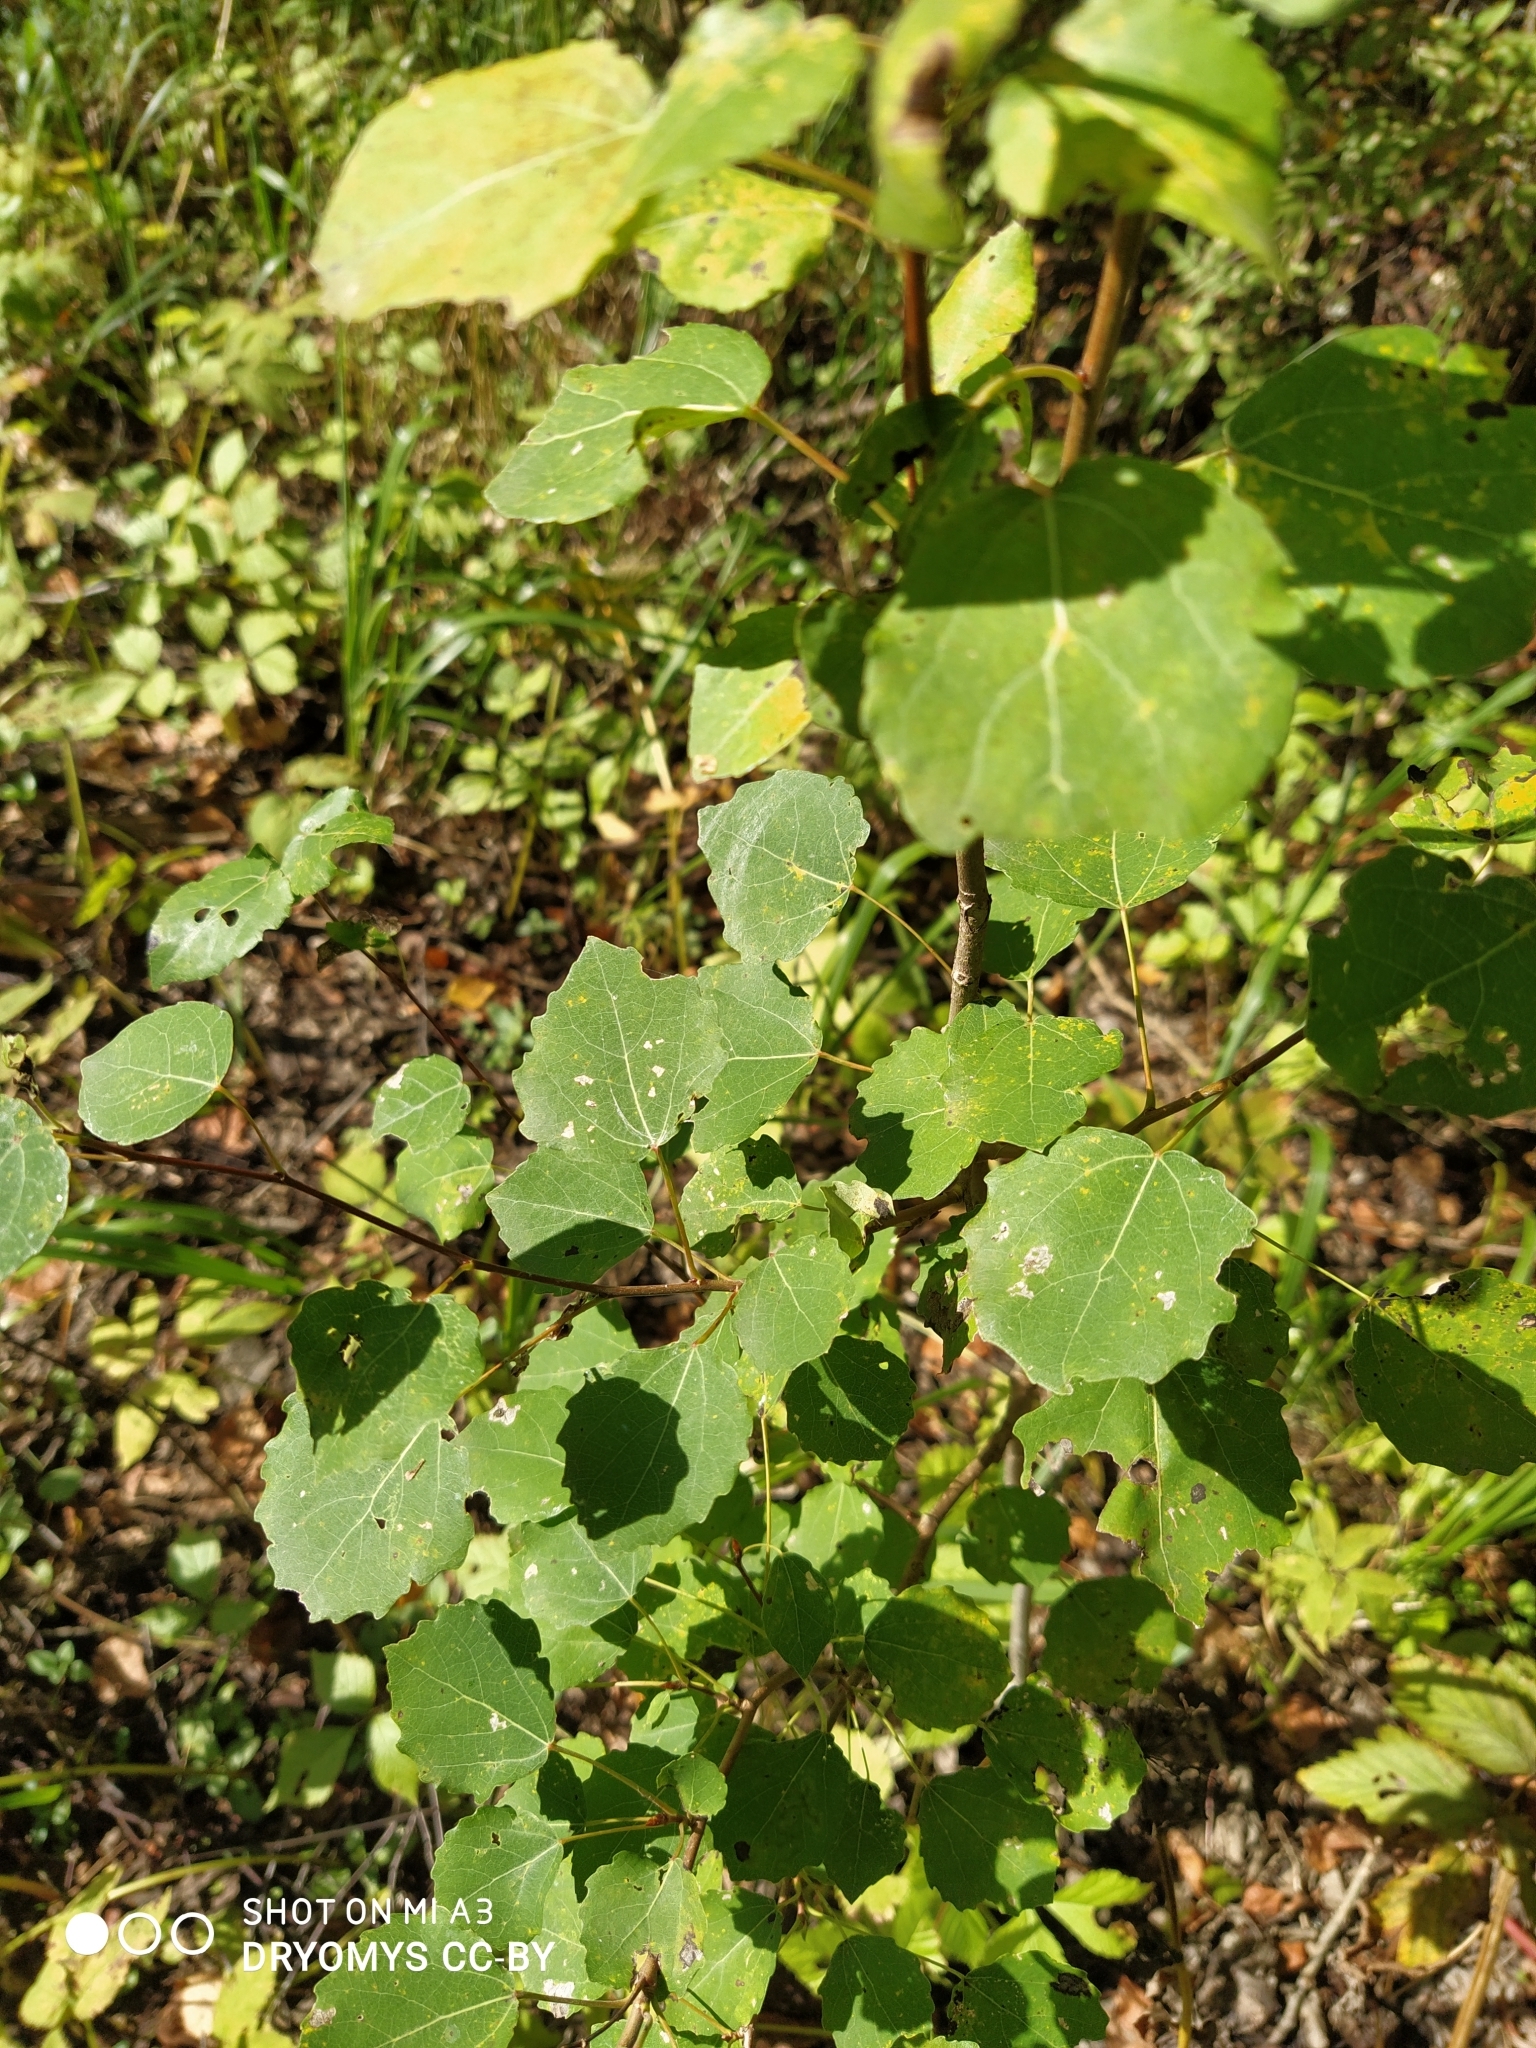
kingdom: Plantae
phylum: Tracheophyta
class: Magnoliopsida
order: Malpighiales
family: Salicaceae
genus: Populus
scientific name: Populus tremula
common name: European aspen
